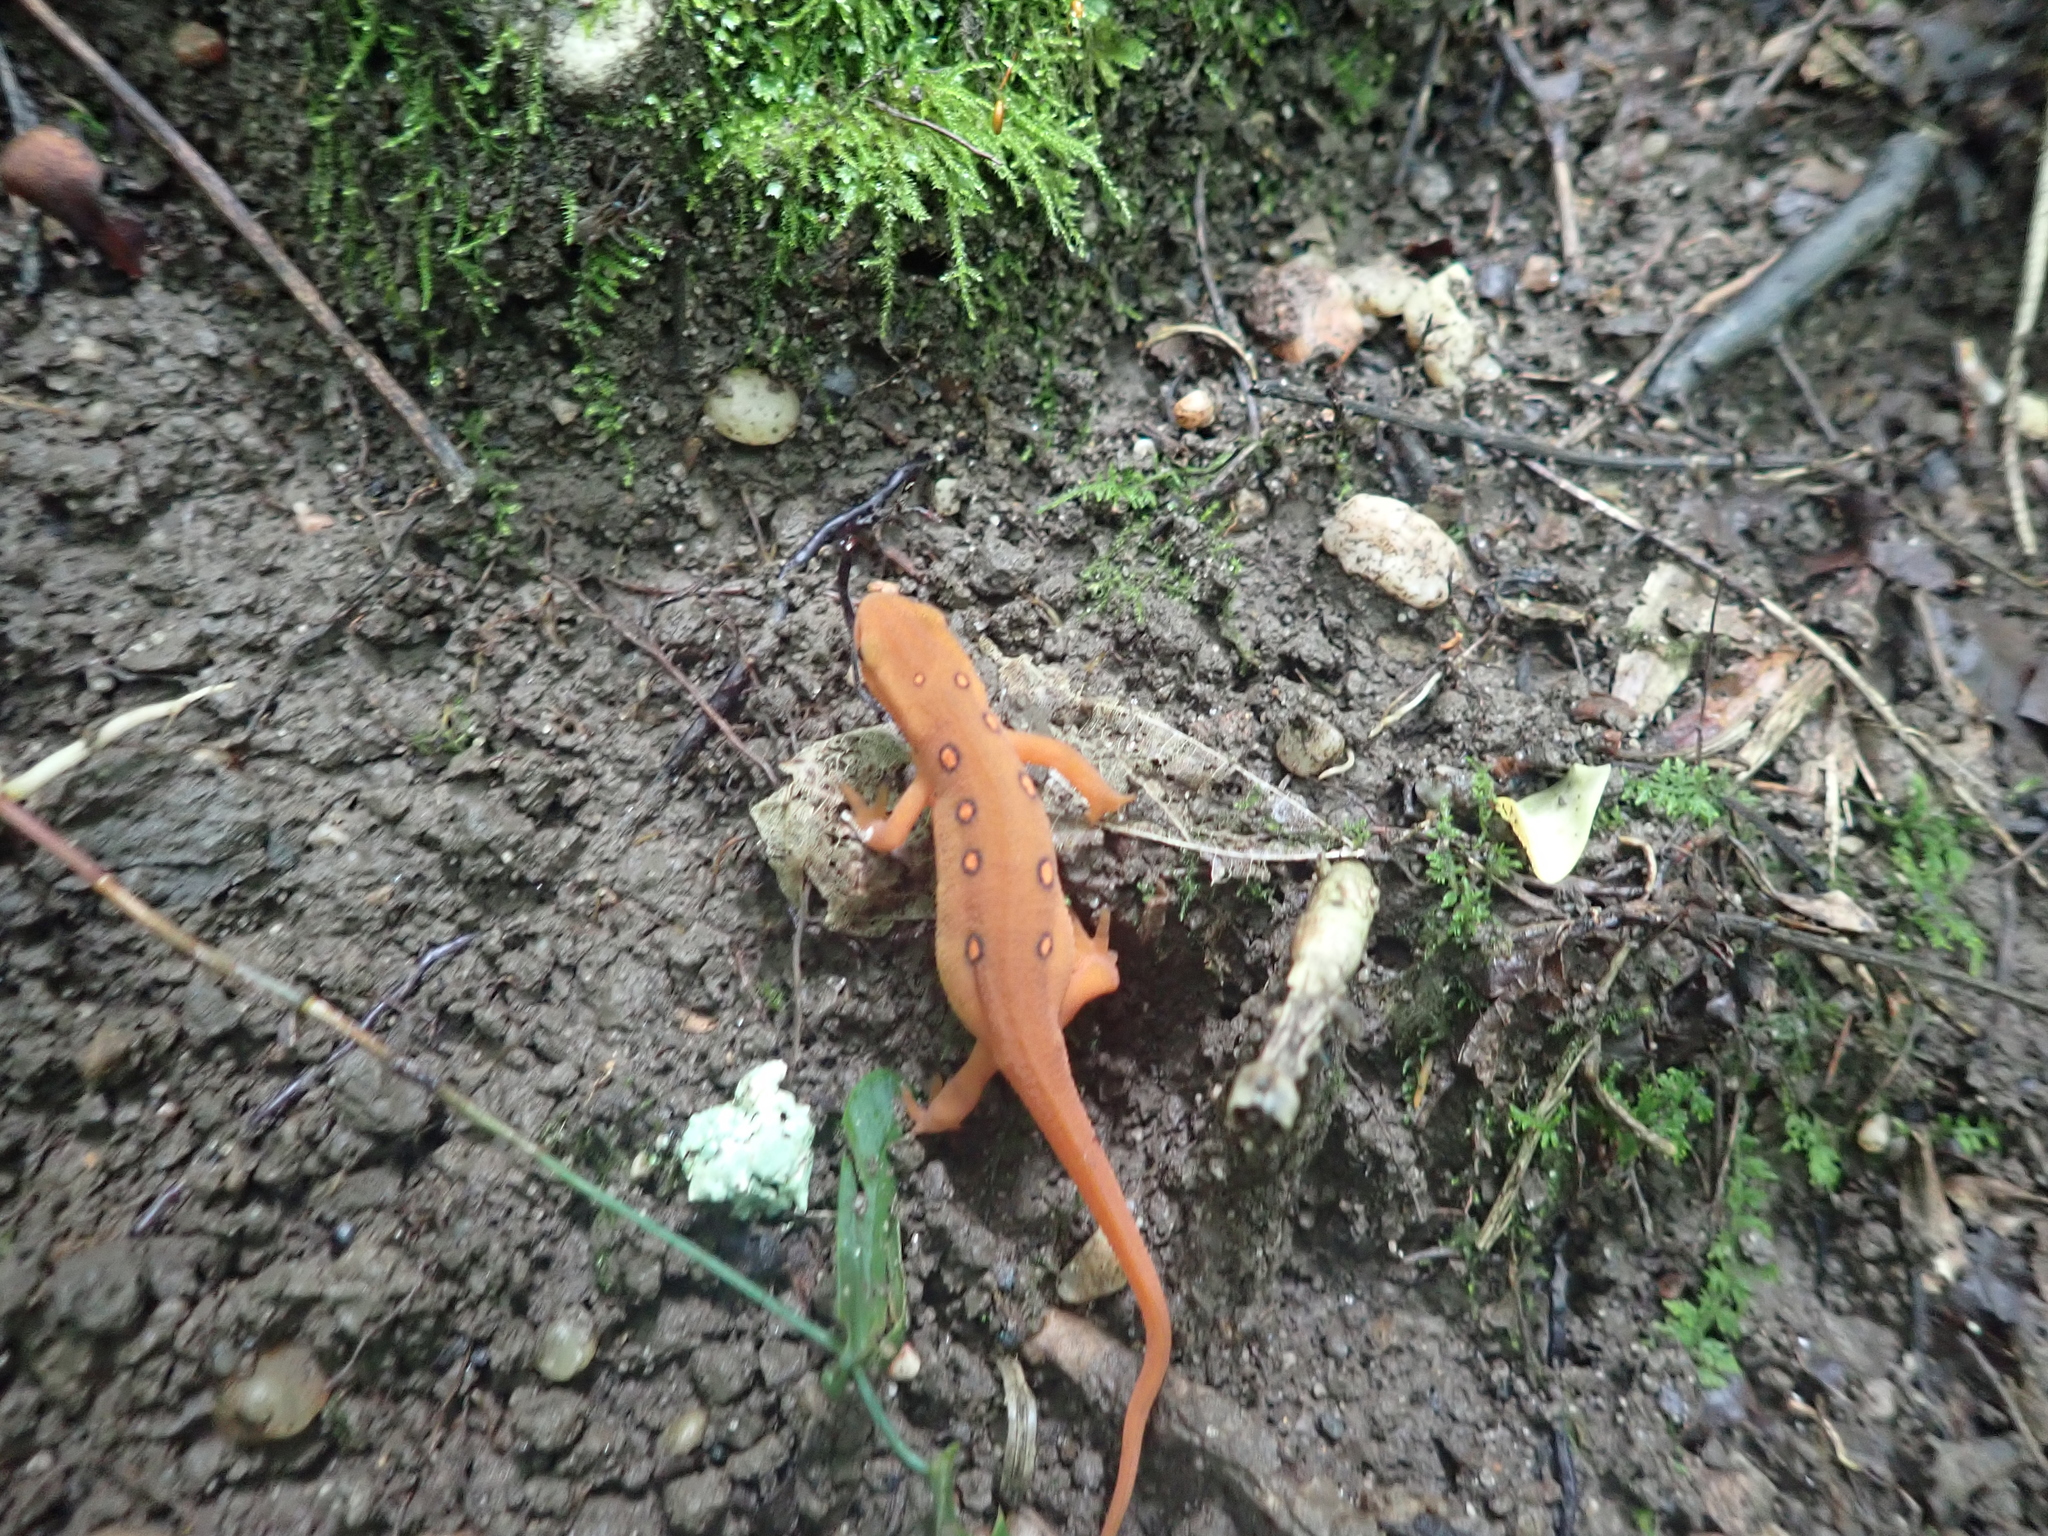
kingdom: Animalia
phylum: Chordata
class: Amphibia
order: Caudata
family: Salamandridae
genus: Notophthalmus
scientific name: Notophthalmus viridescens
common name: Eastern newt
